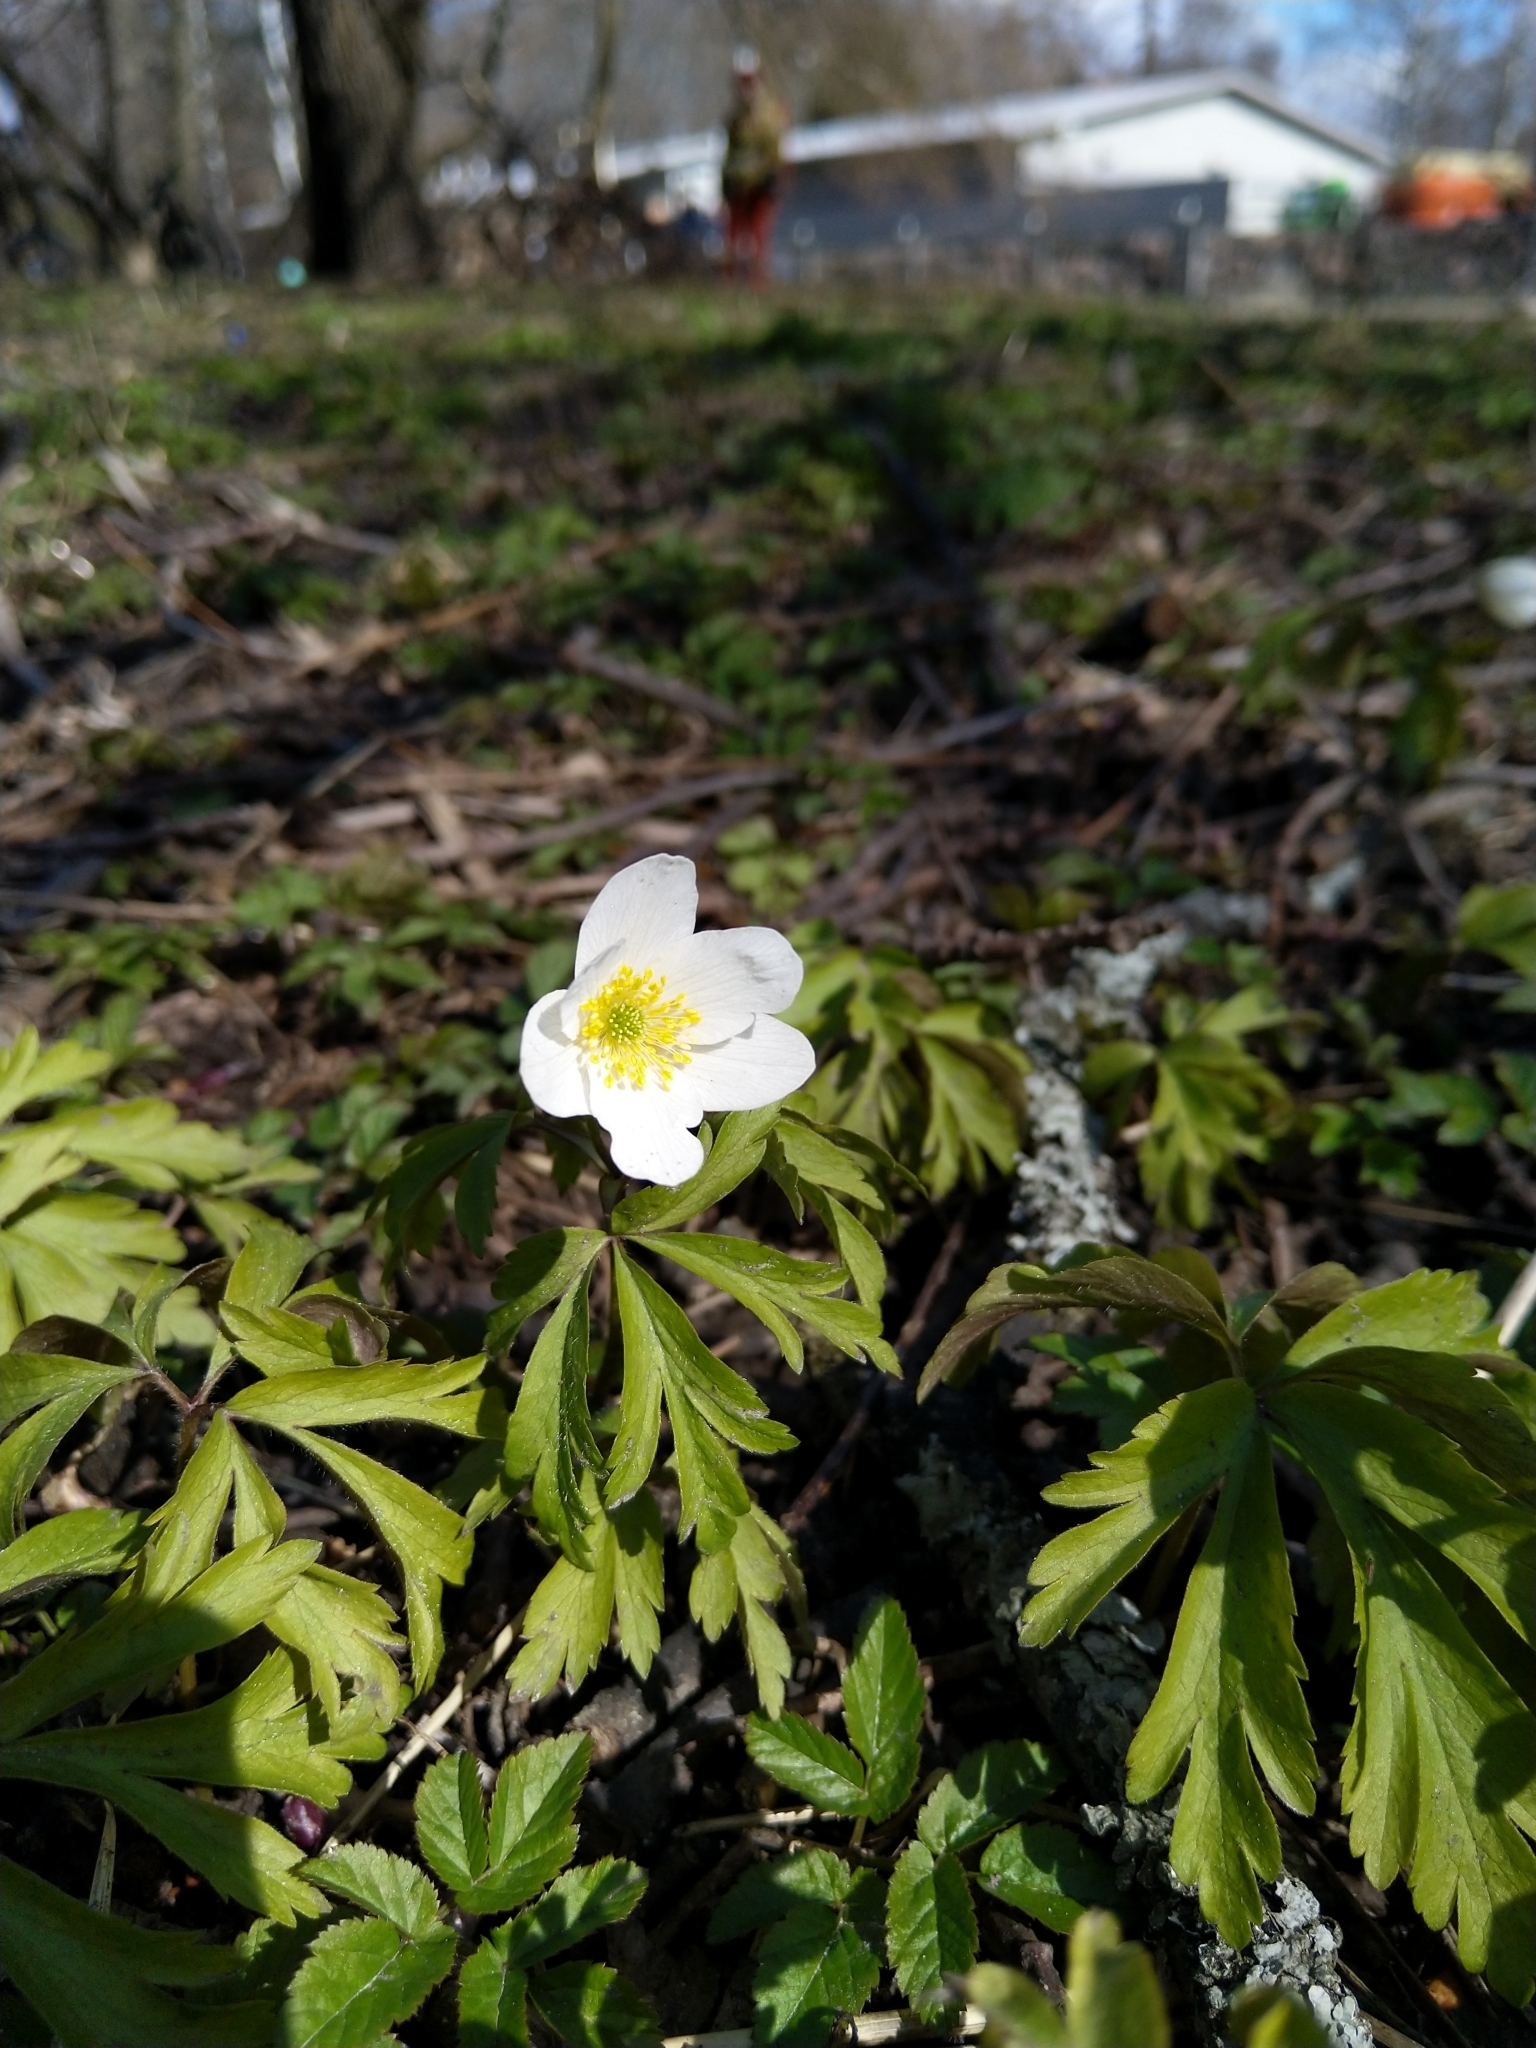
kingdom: Plantae
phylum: Tracheophyta
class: Magnoliopsida
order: Ranunculales
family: Ranunculaceae
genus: Anemone
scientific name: Anemone nemorosa
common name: Wood anemone
